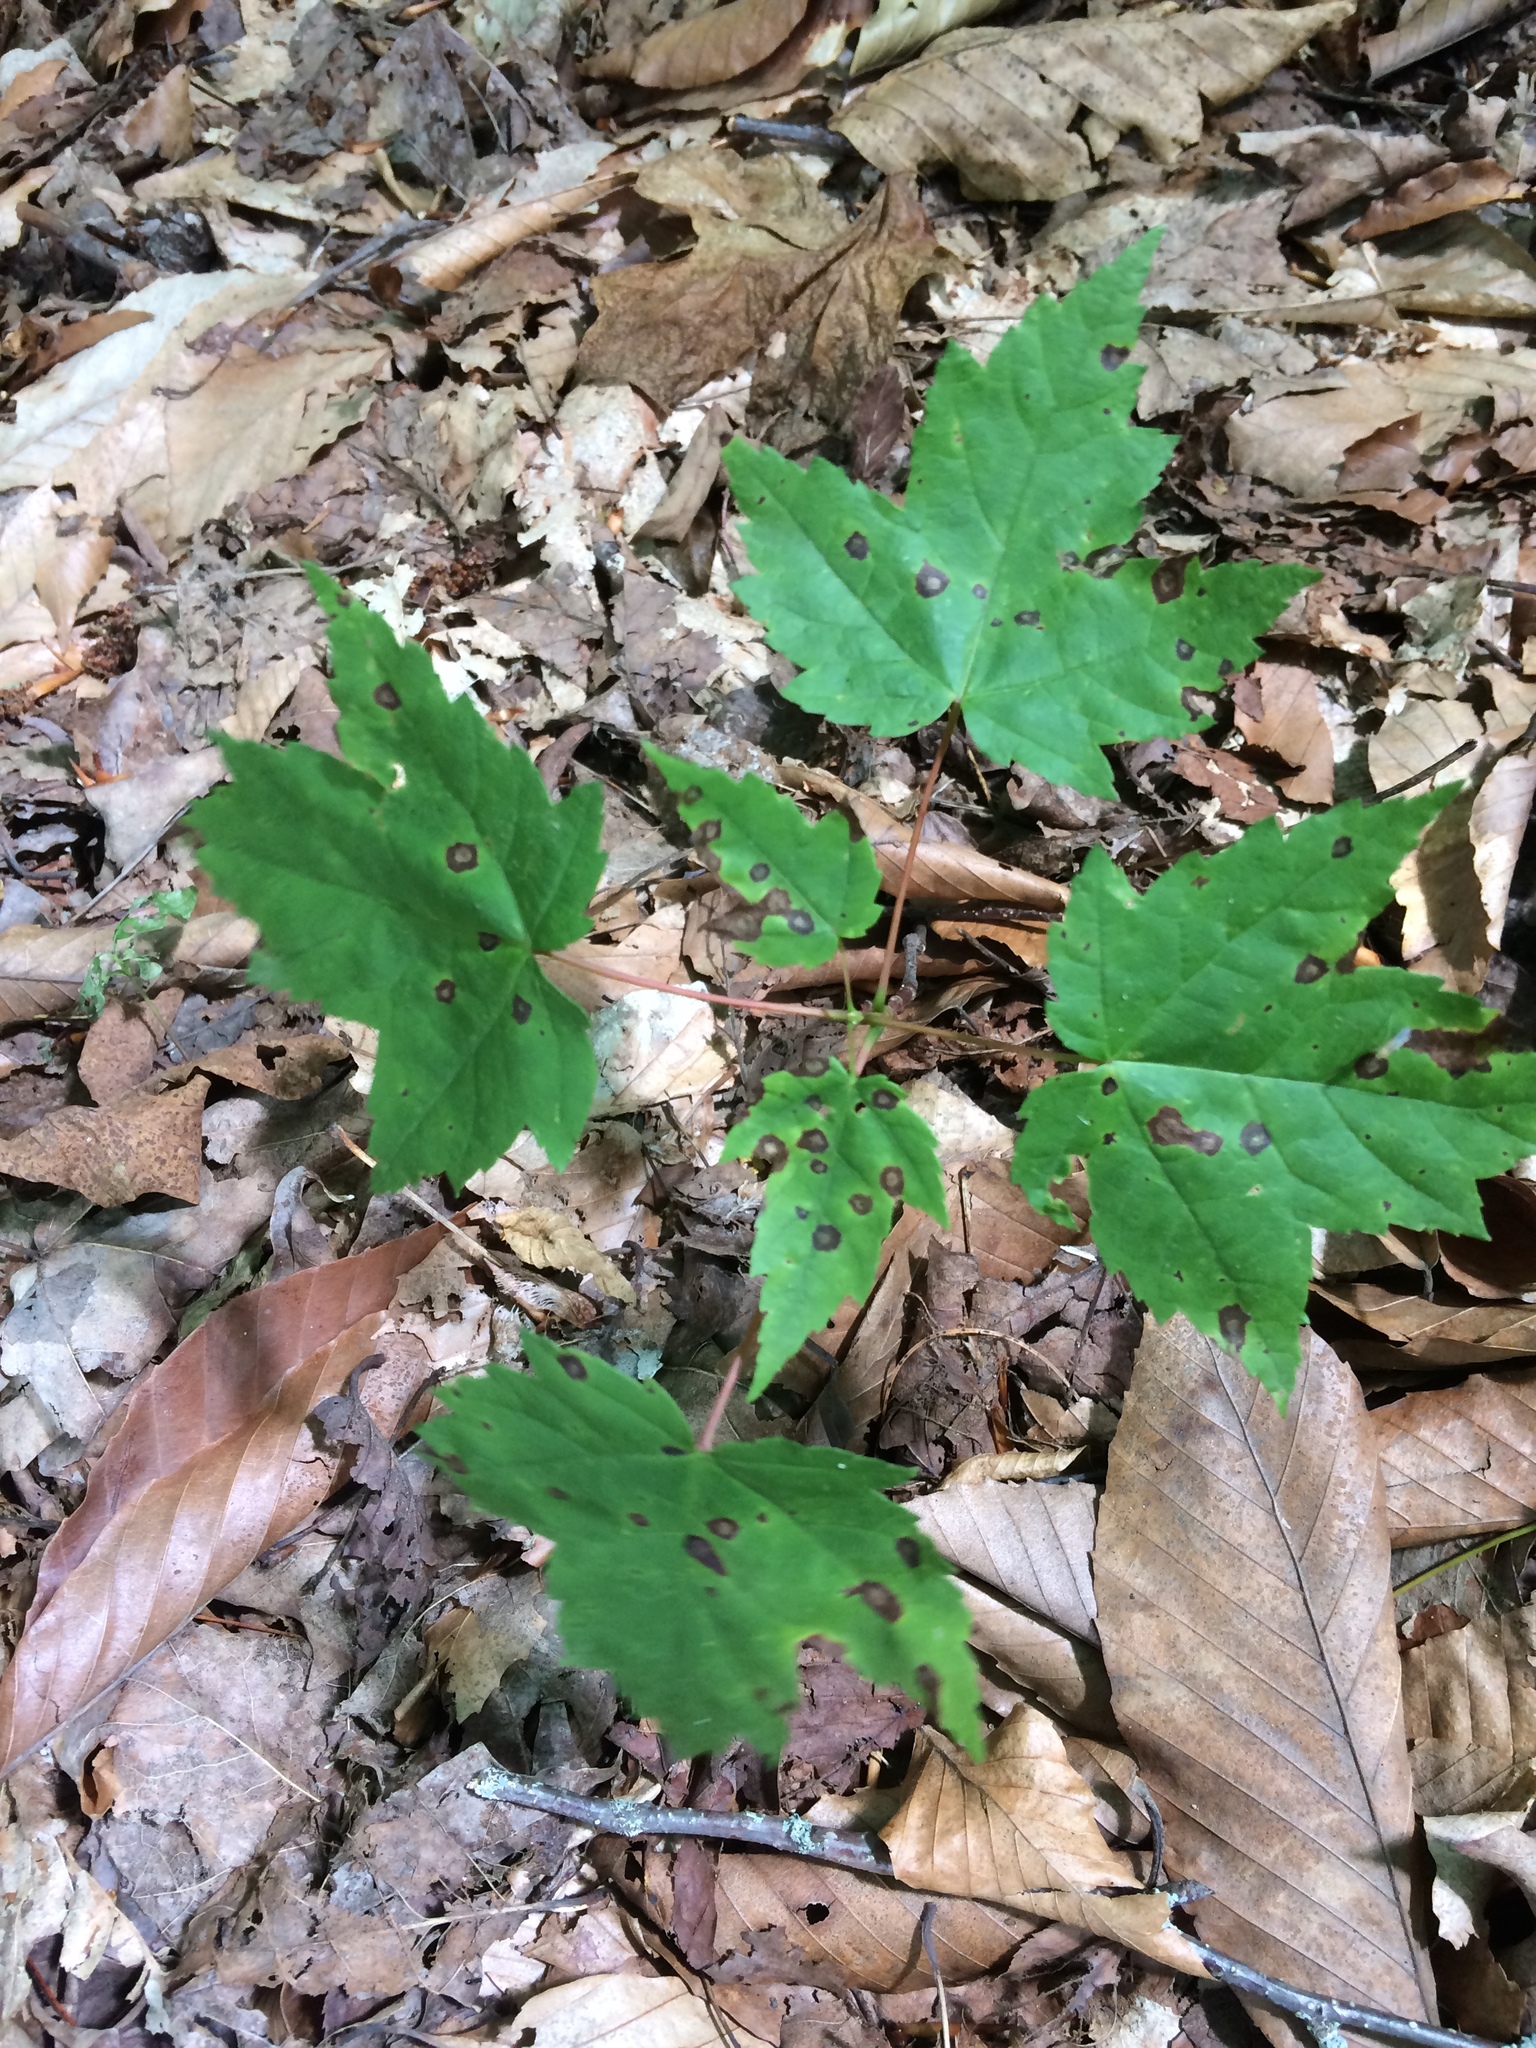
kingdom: Plantae
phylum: Tracheophyta
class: Magnoliopsida
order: Sapindales
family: Sapindaceae
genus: Acer
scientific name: Acer rubrum
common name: Red maple
